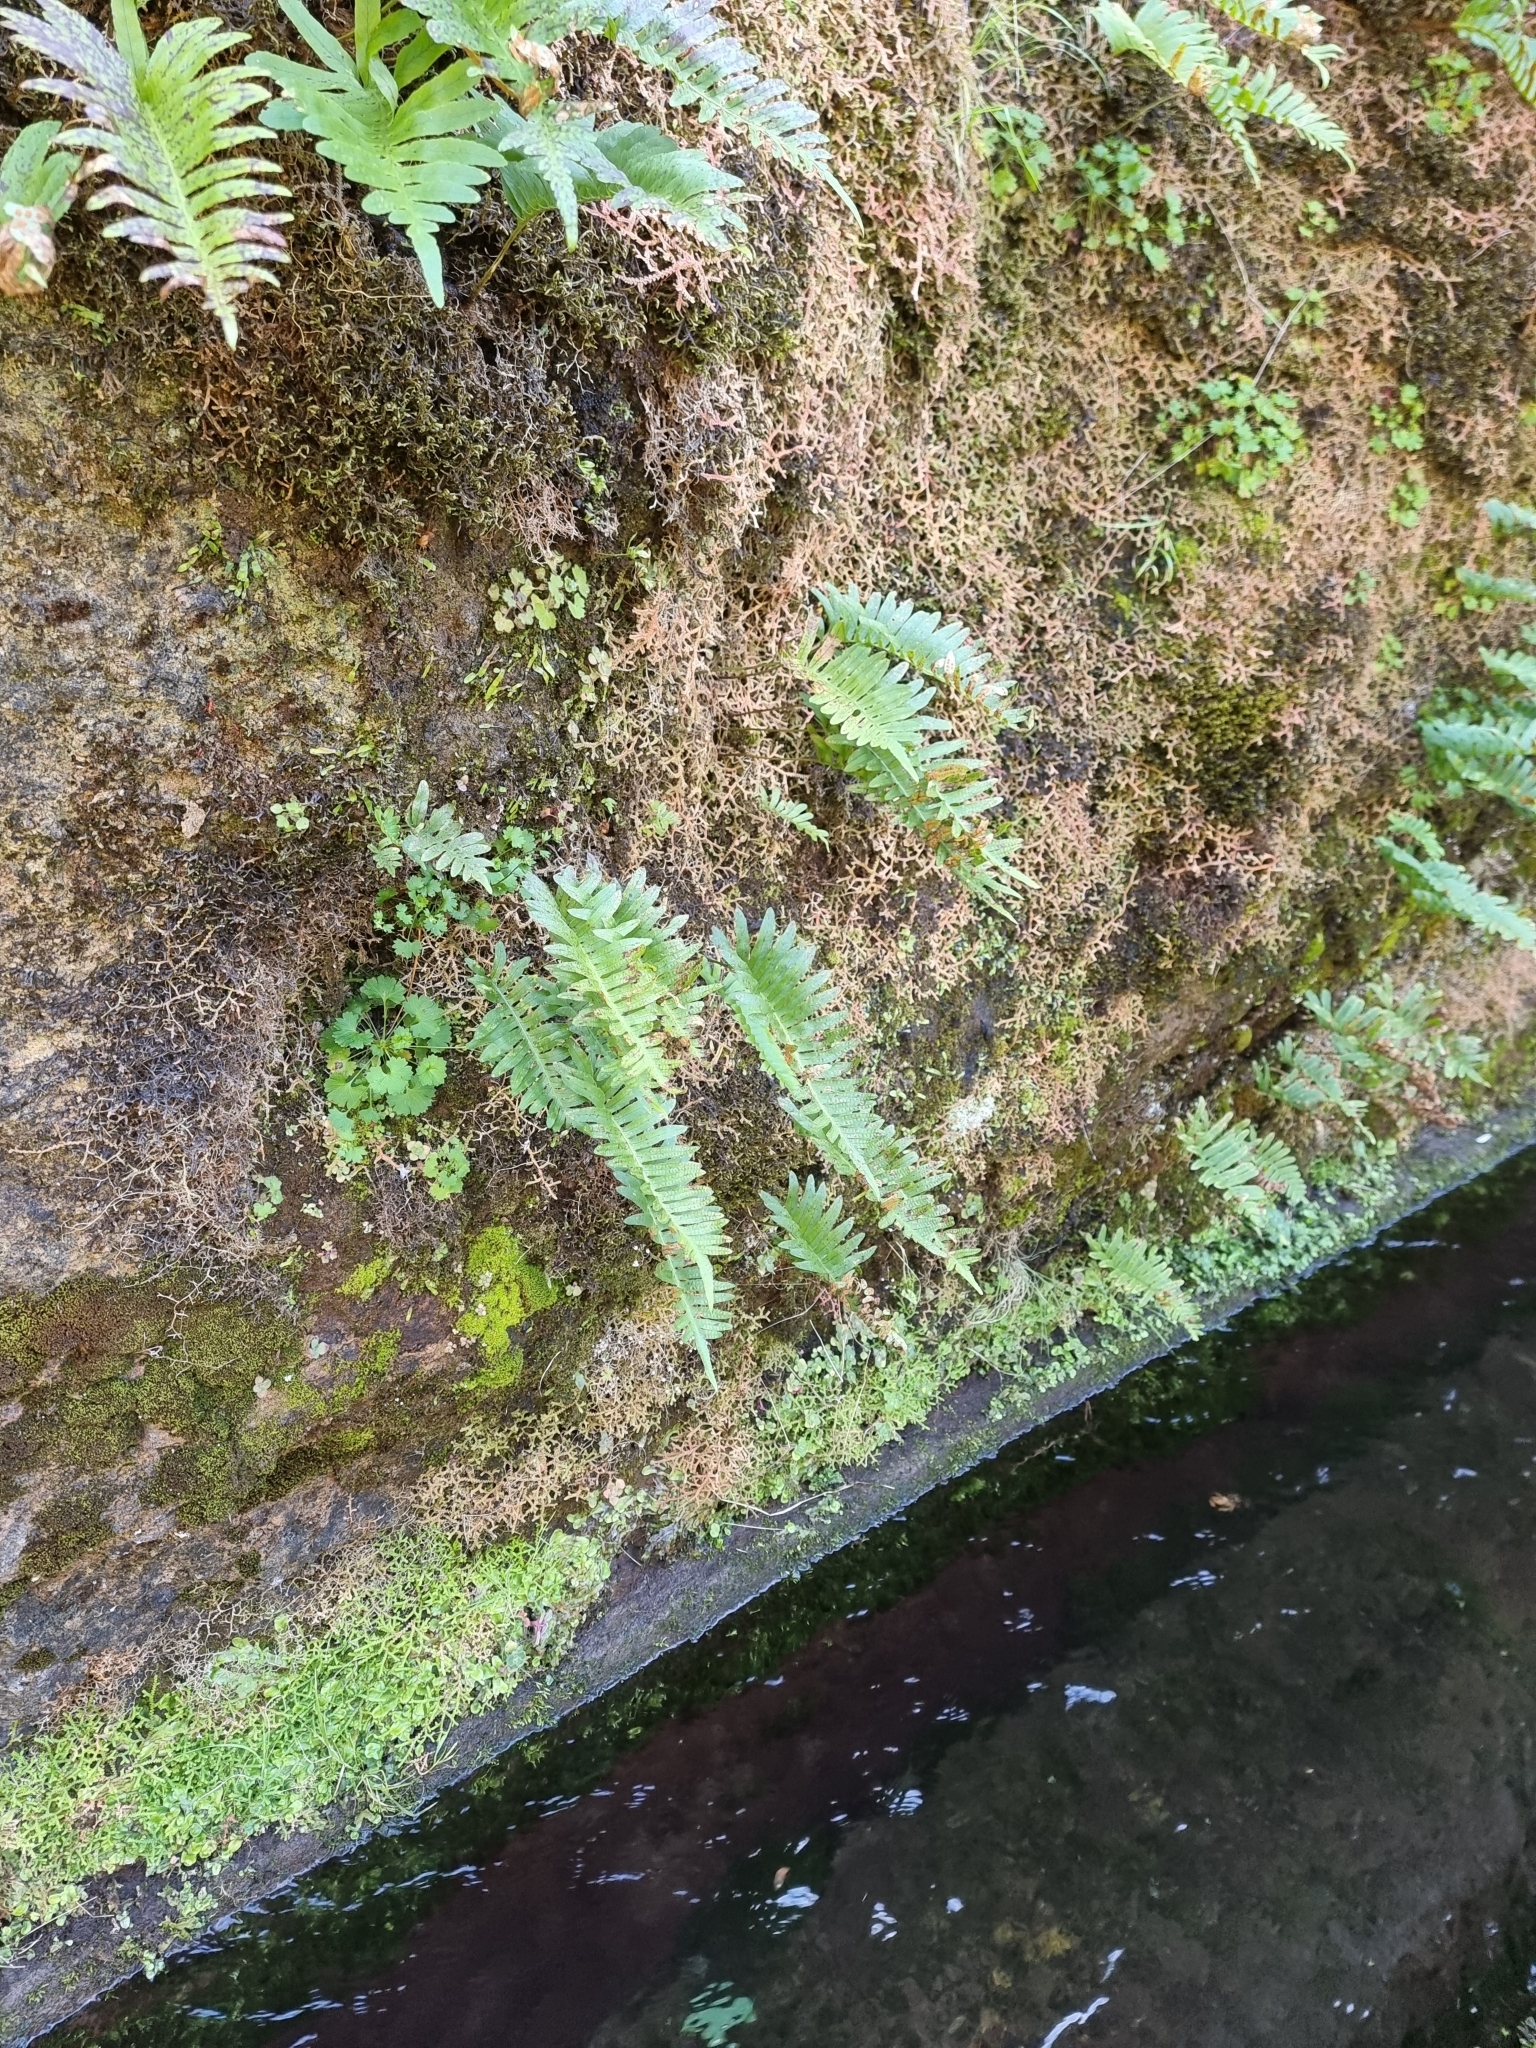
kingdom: Plantae
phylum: Tracheophyta
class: Polypodiopsida
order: Polypodiales
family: Polypodiaceae
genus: Polypodium
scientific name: Polypodium macaronesicum
